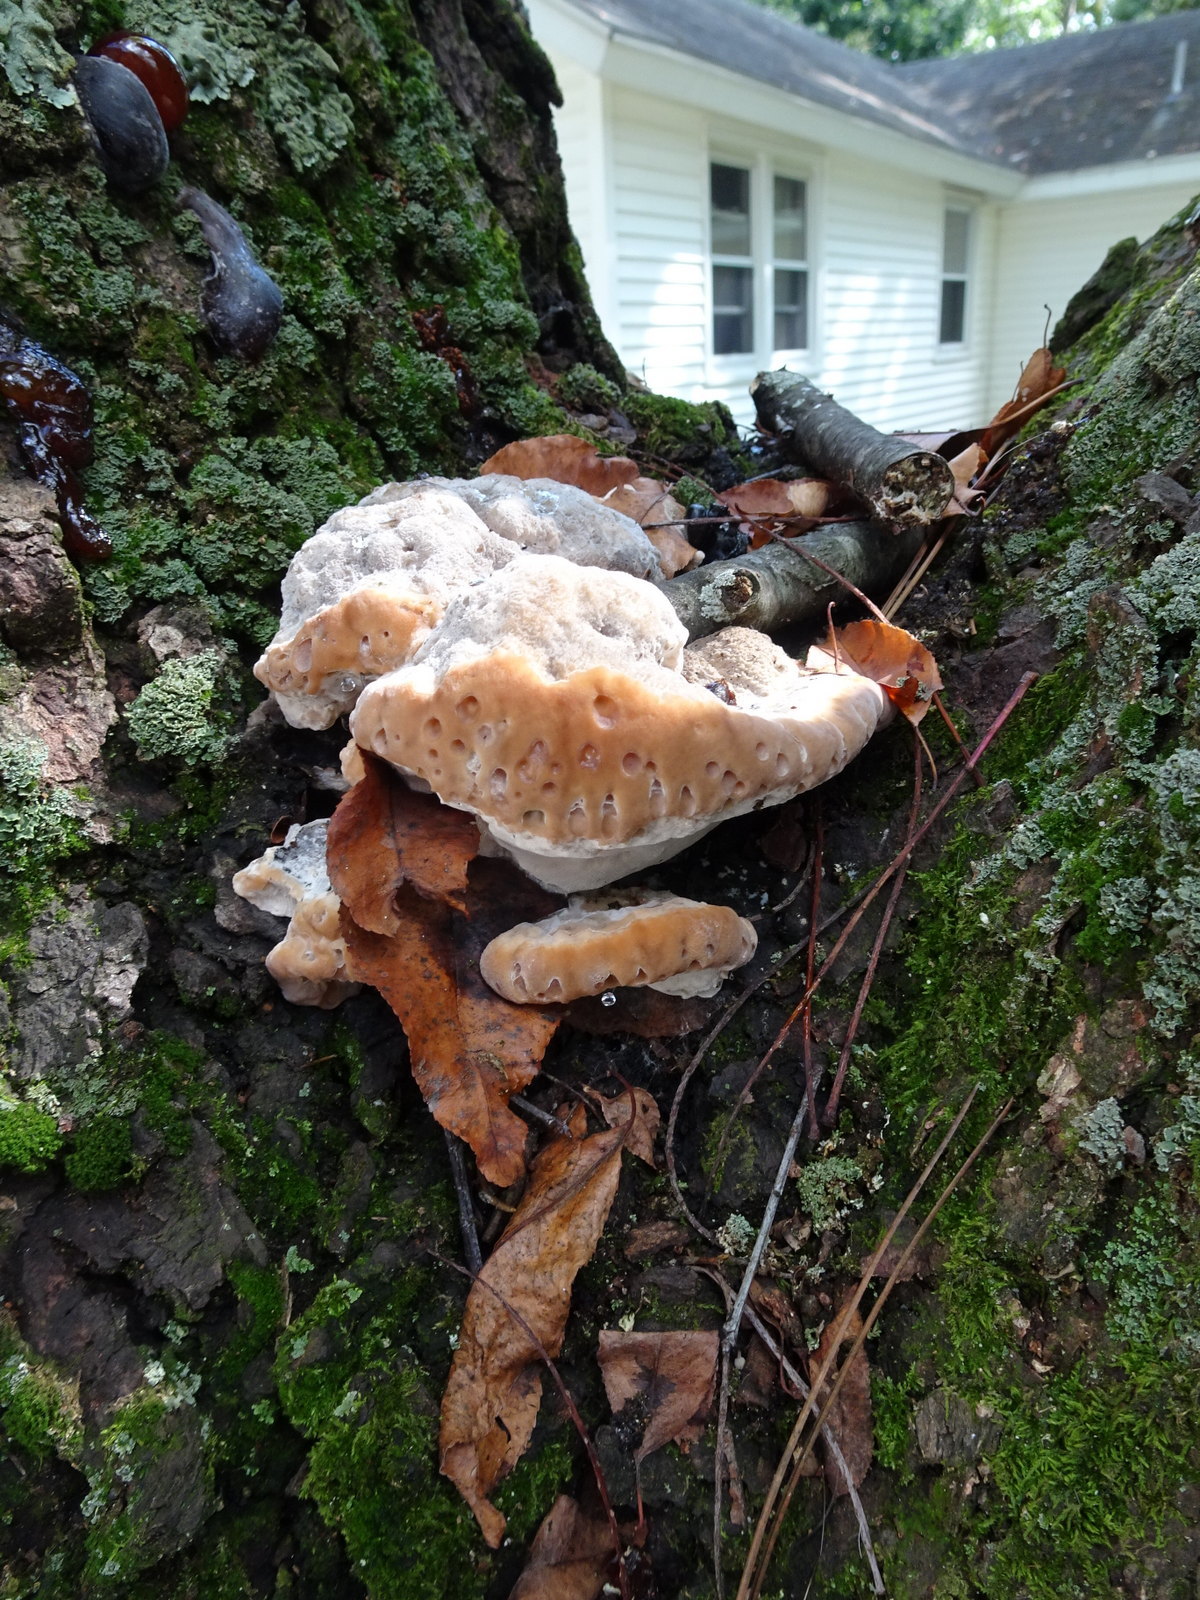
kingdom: Fungi
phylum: Basidiomycota
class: Agaricomycetes
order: Polyporales
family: Fomitopsidaceae
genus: Niveoporofomes
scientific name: Niveoporofomes spraguei
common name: Green cheese polypore
